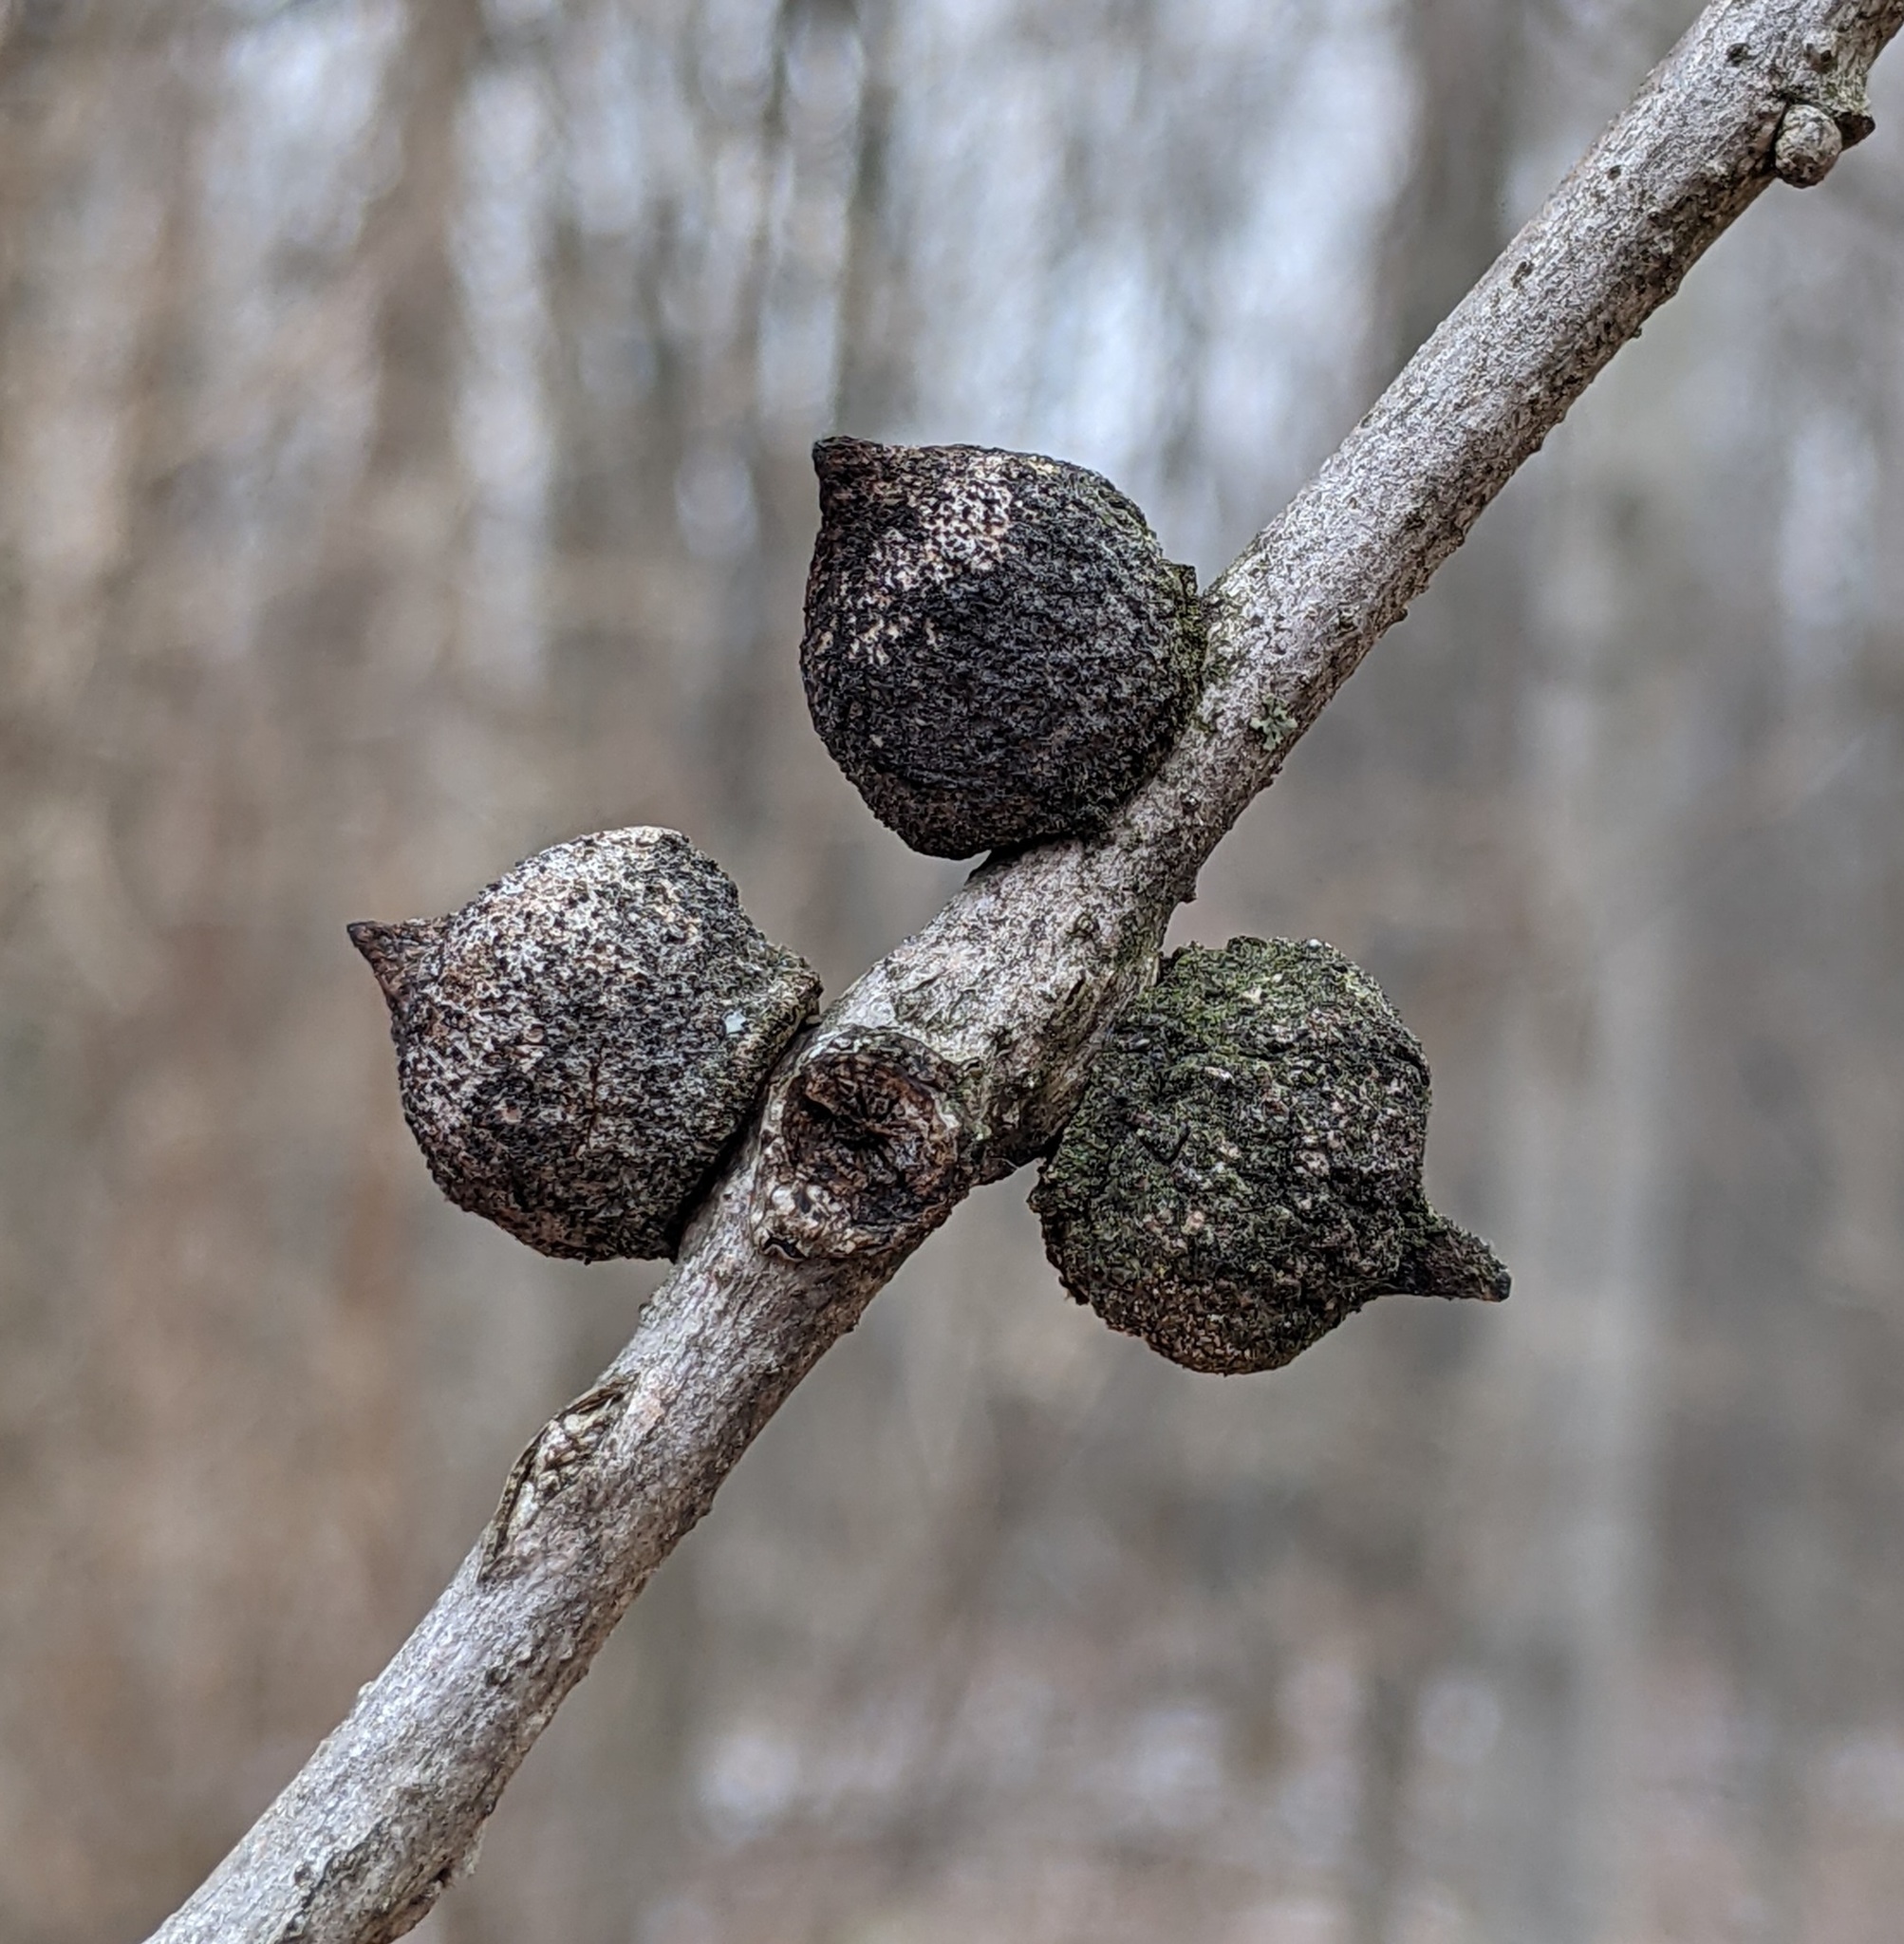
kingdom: Animalia
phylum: Arthropoda
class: Insecta
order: Hymenoptera
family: Cynipidae
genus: Disholcaspis
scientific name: Disholcaspis
